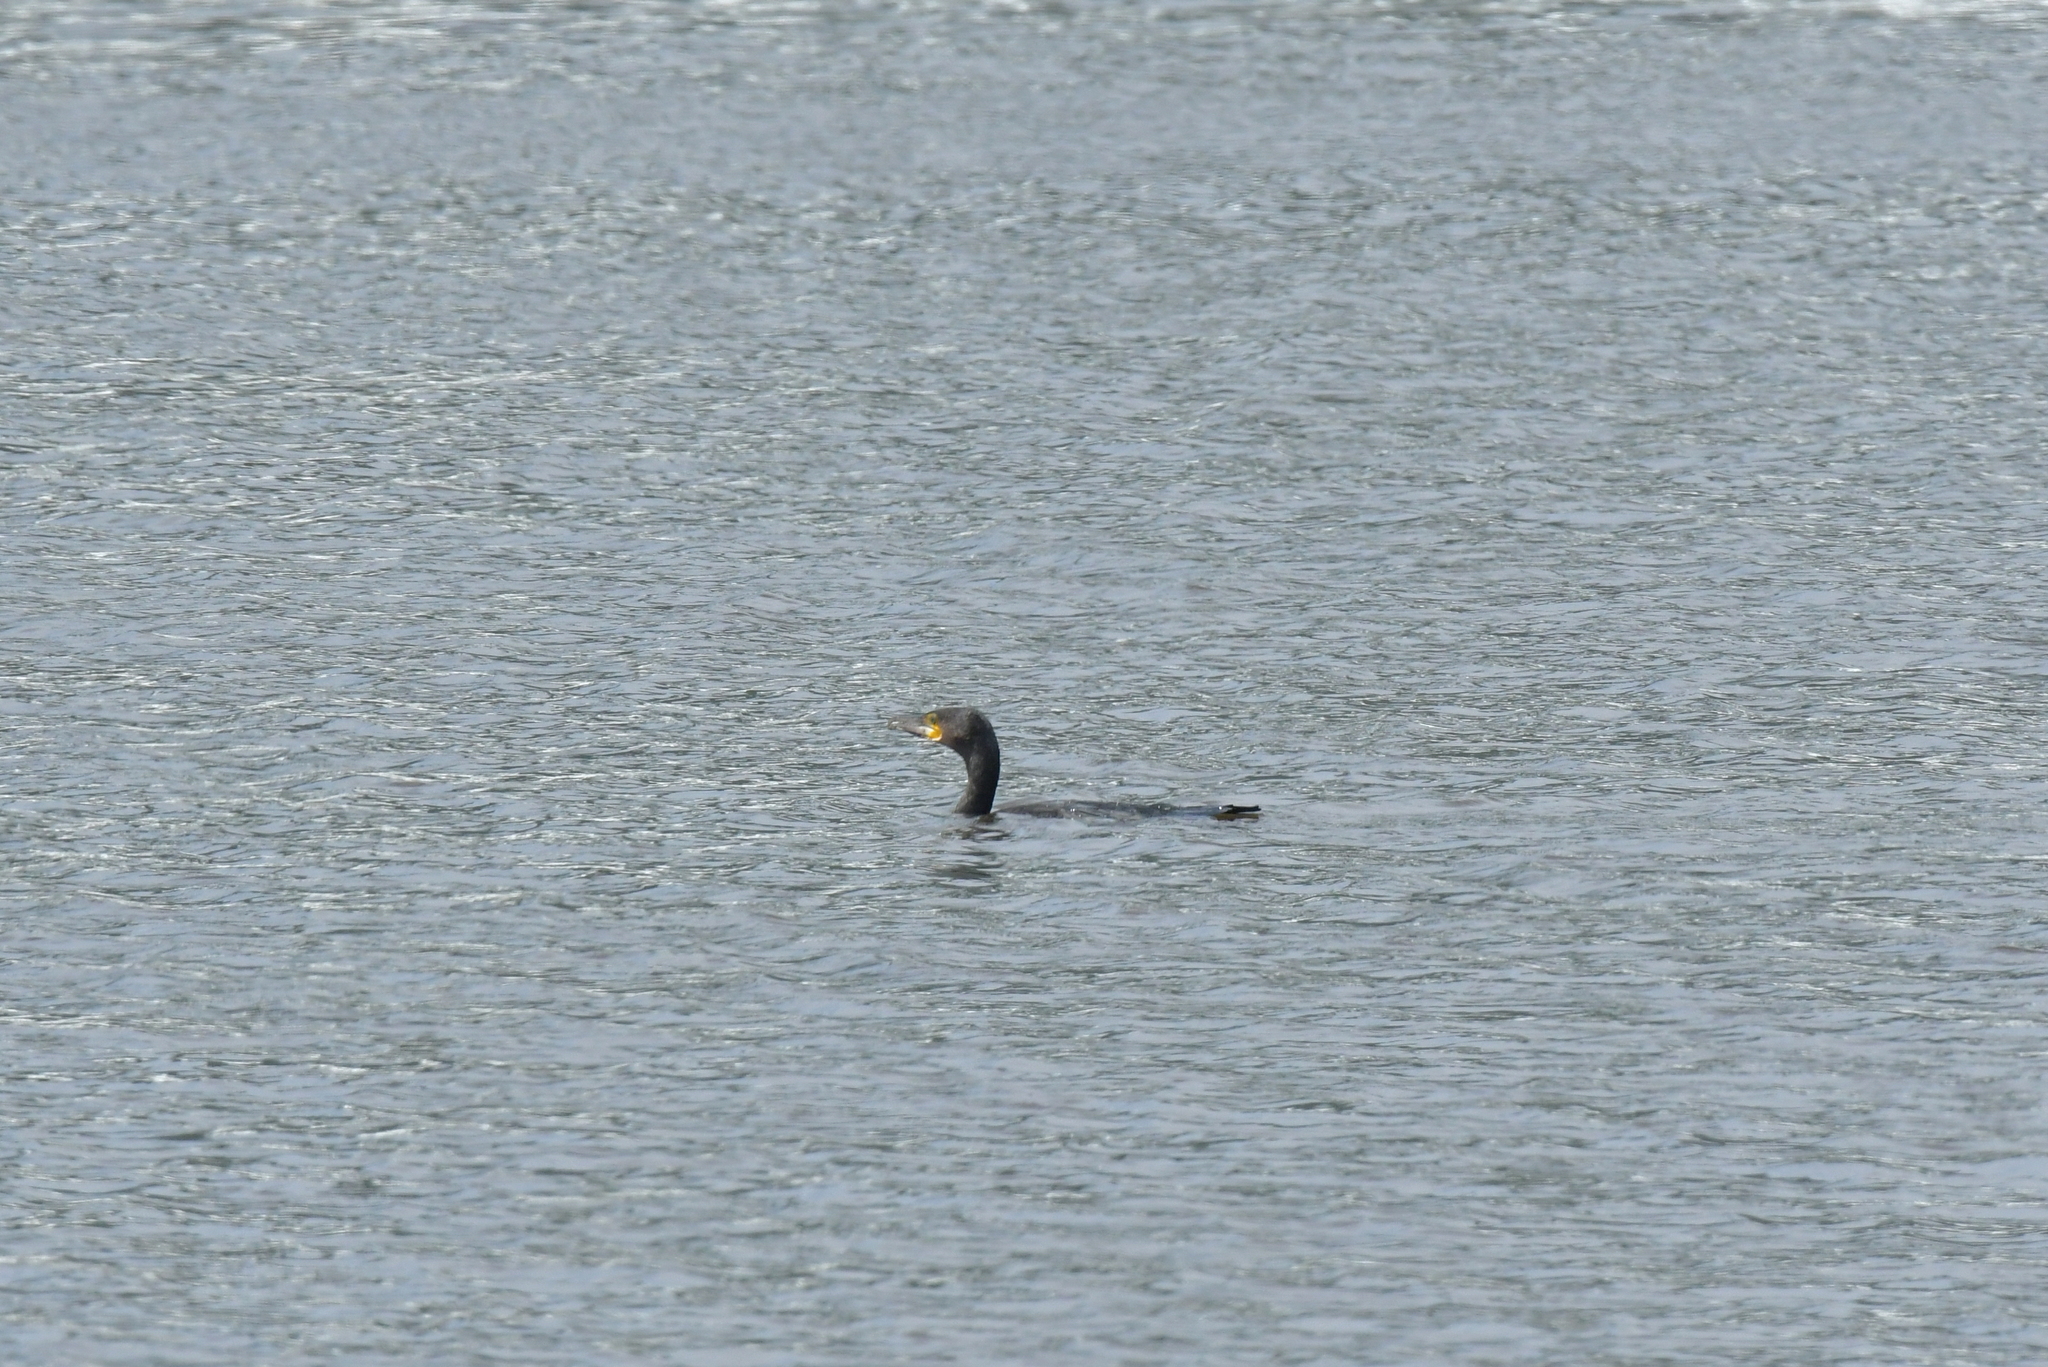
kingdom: Animalia
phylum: Chordata
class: Aves
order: Suliformes
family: Phalacrocoracidae
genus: Phalacrocorax
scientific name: Phalacrocorax carbo
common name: Great cormorant
